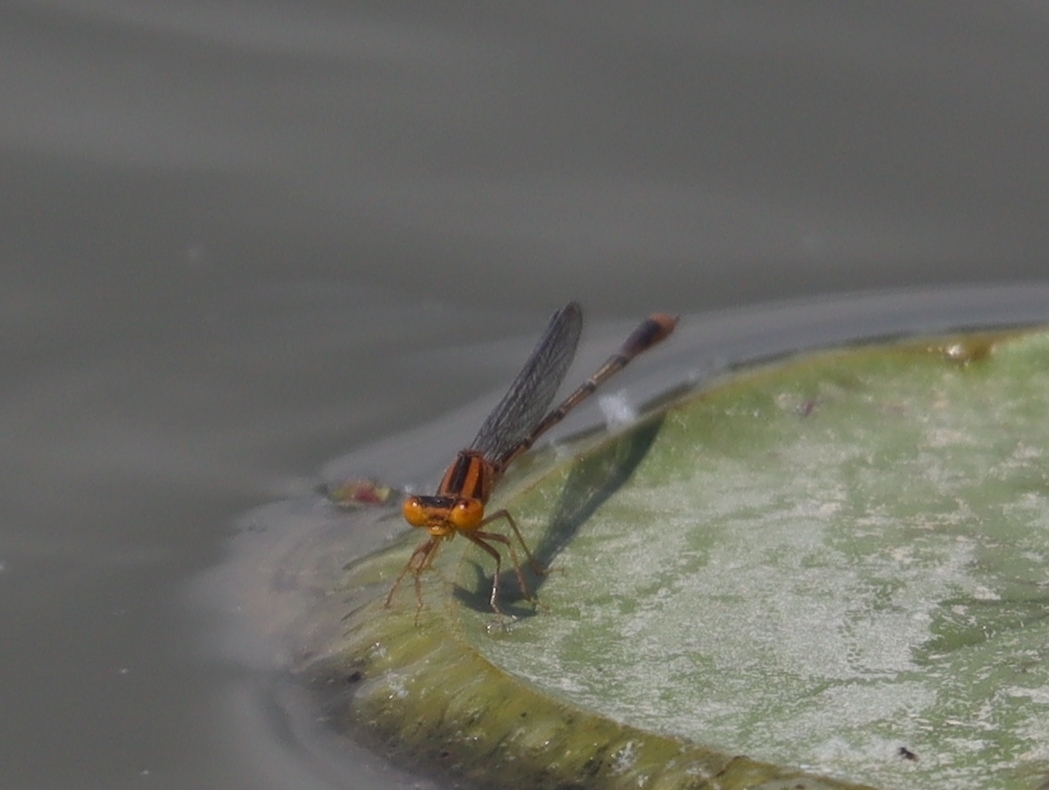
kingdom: Animalia
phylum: Arthropoda
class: Insecta
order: Odonata
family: Coenagrionidae
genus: Enallagma
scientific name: Enallagma signatum
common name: Orange bluet
